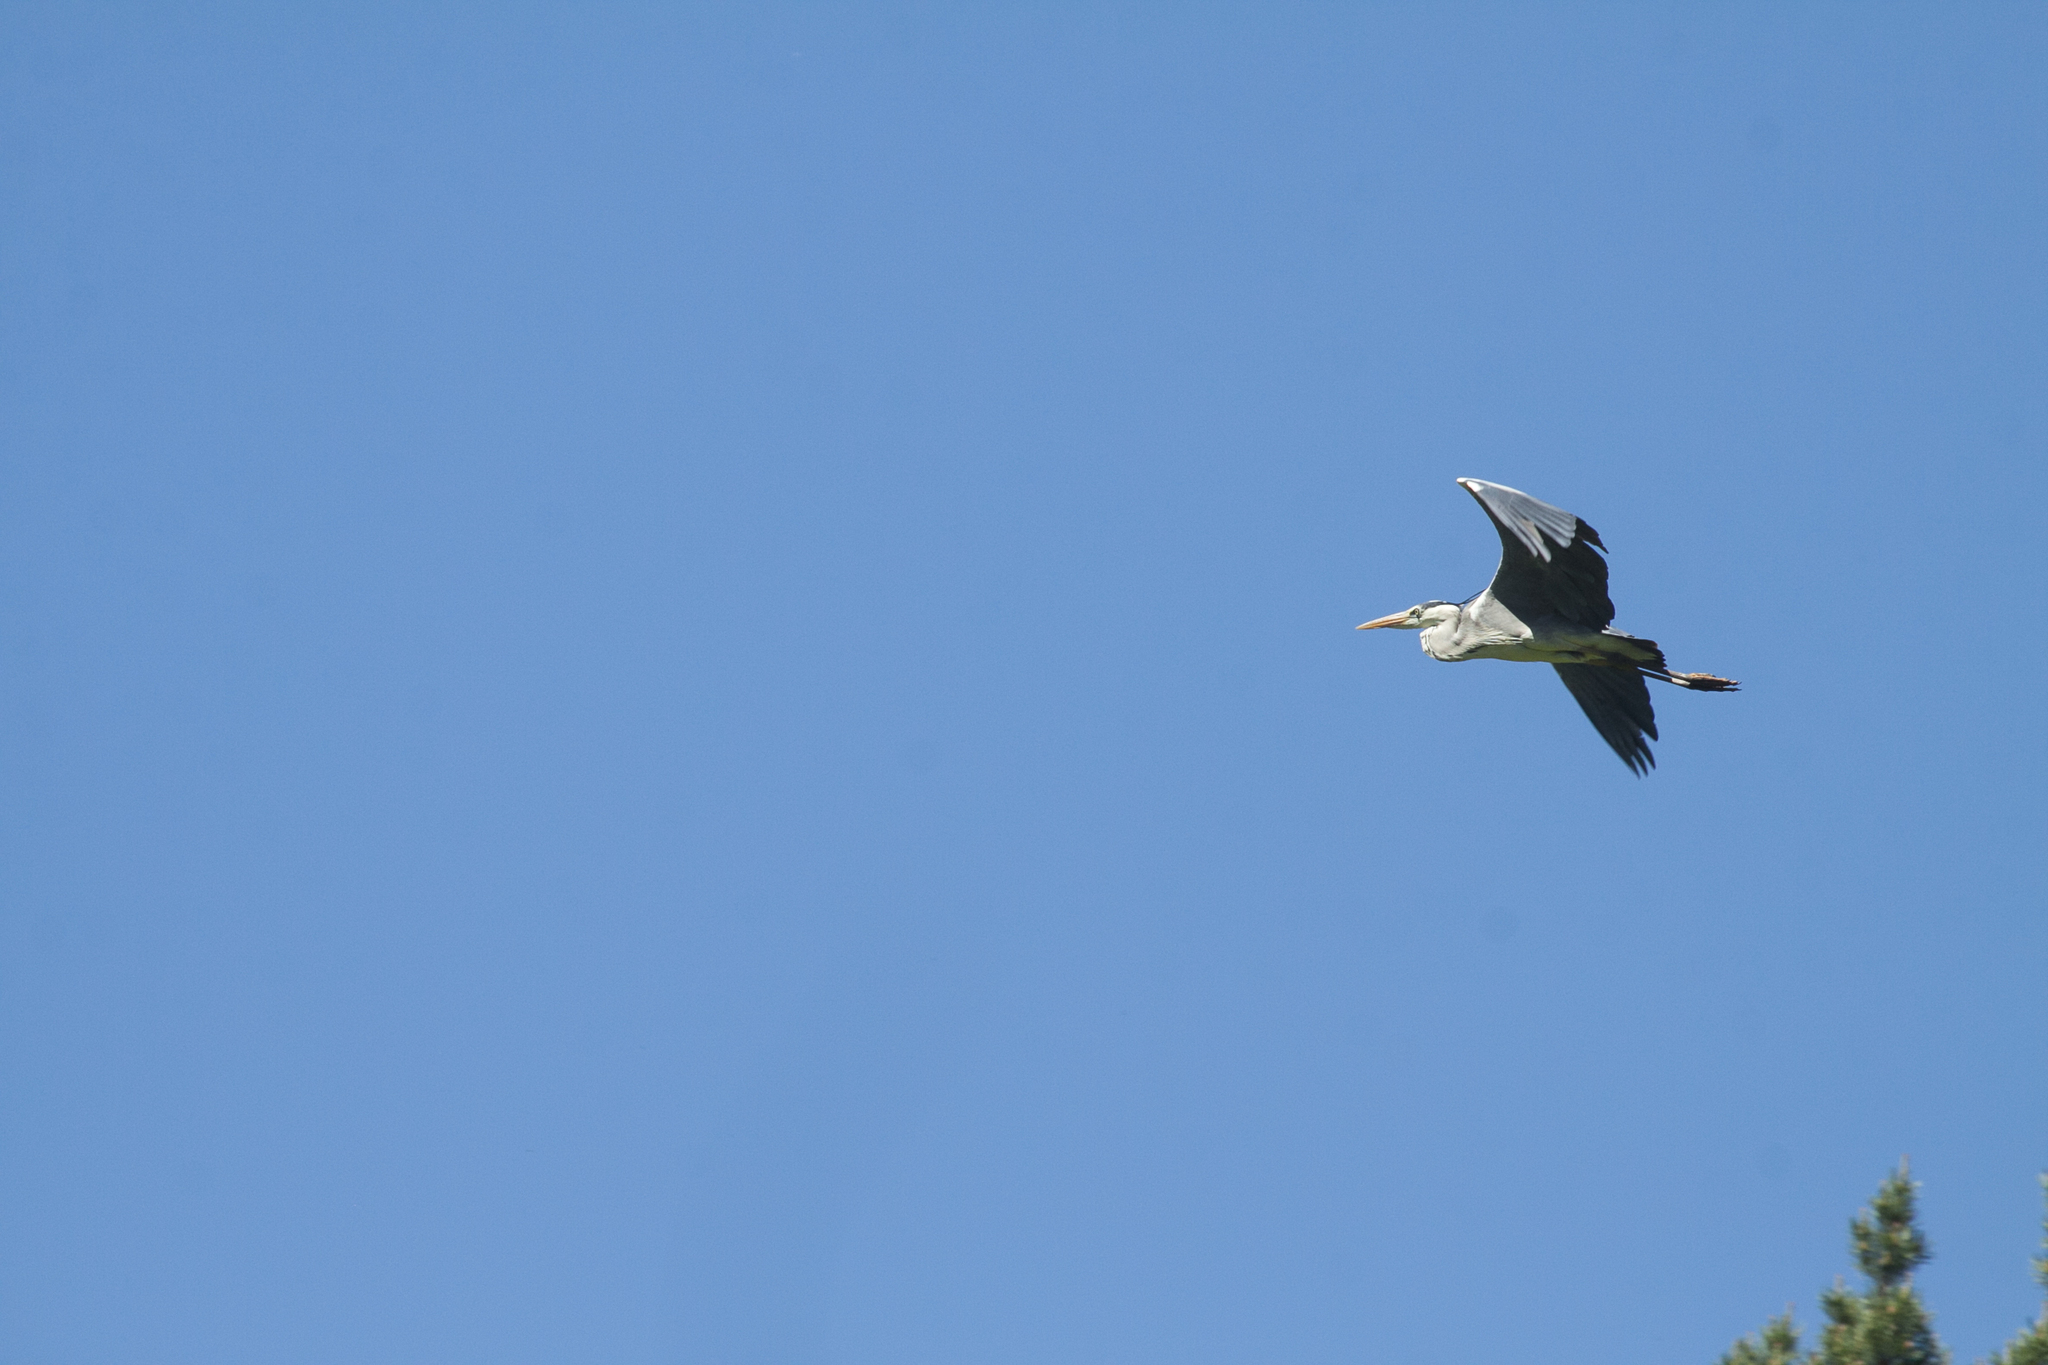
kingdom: Animalia
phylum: Chordata
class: Aves
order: Pelecaniformes
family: Ardeidae
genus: Ardea
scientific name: Ardea cinerea
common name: Grey heron
